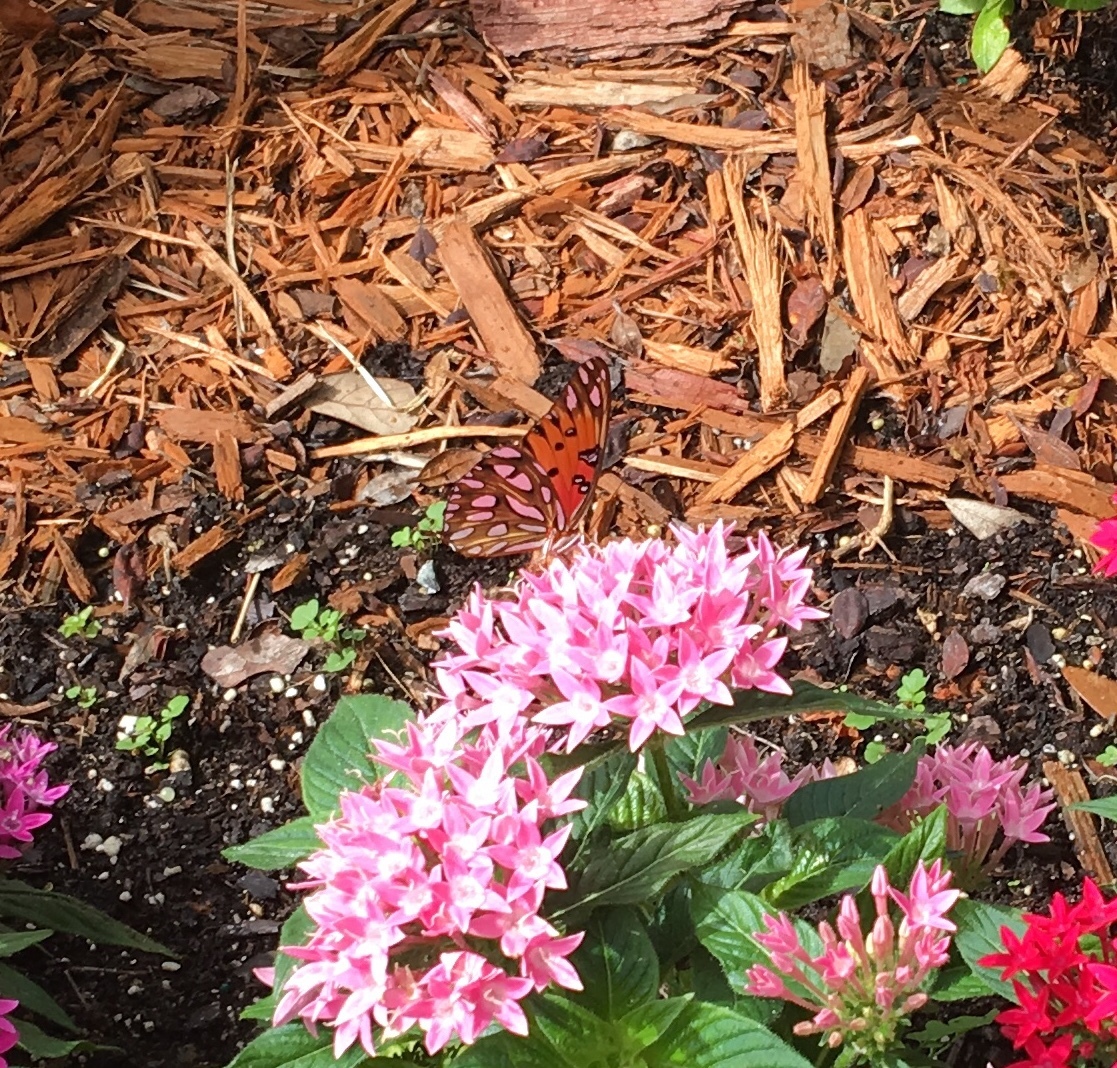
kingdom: Animalia
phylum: Arthropoda
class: Insecta
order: Lepidoptera
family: Nymphalidae
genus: Dione
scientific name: Dione vanillae
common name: Gulf fritillary
